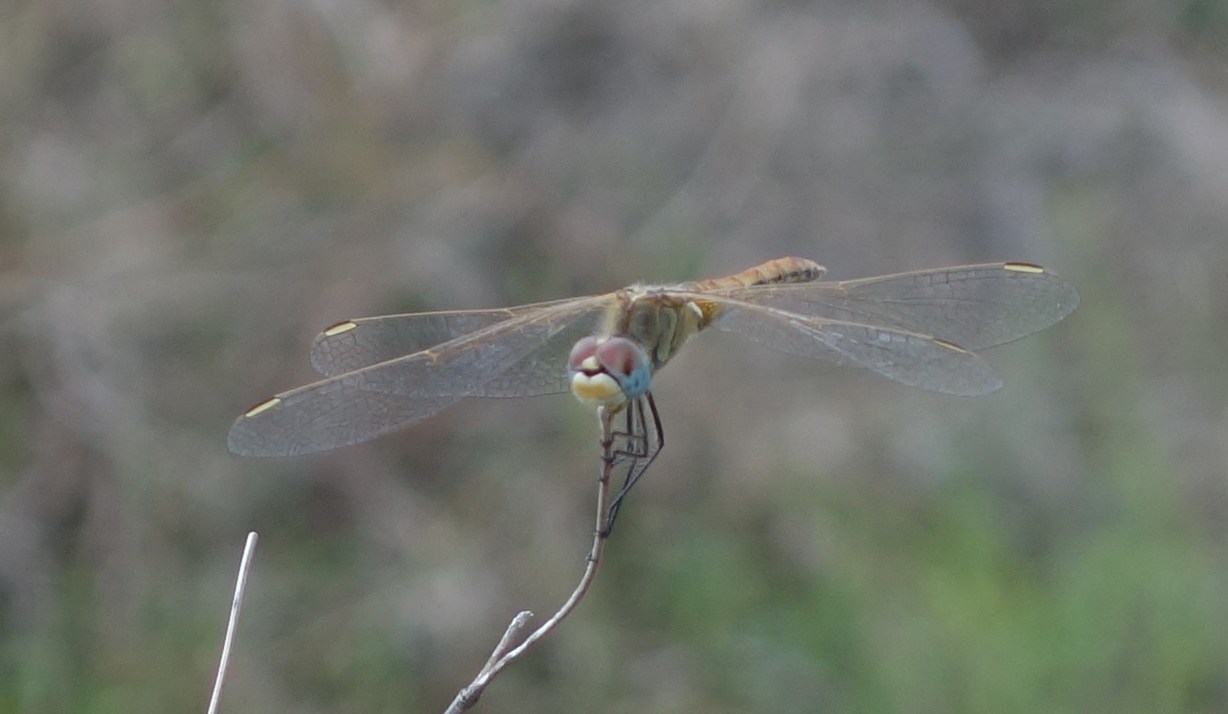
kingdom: Animalia
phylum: Arthropoda
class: Insecta
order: Odonata
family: Libellulidae
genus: Sympetrum
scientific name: Sympetrum fonscolombii
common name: Red-veined darter
